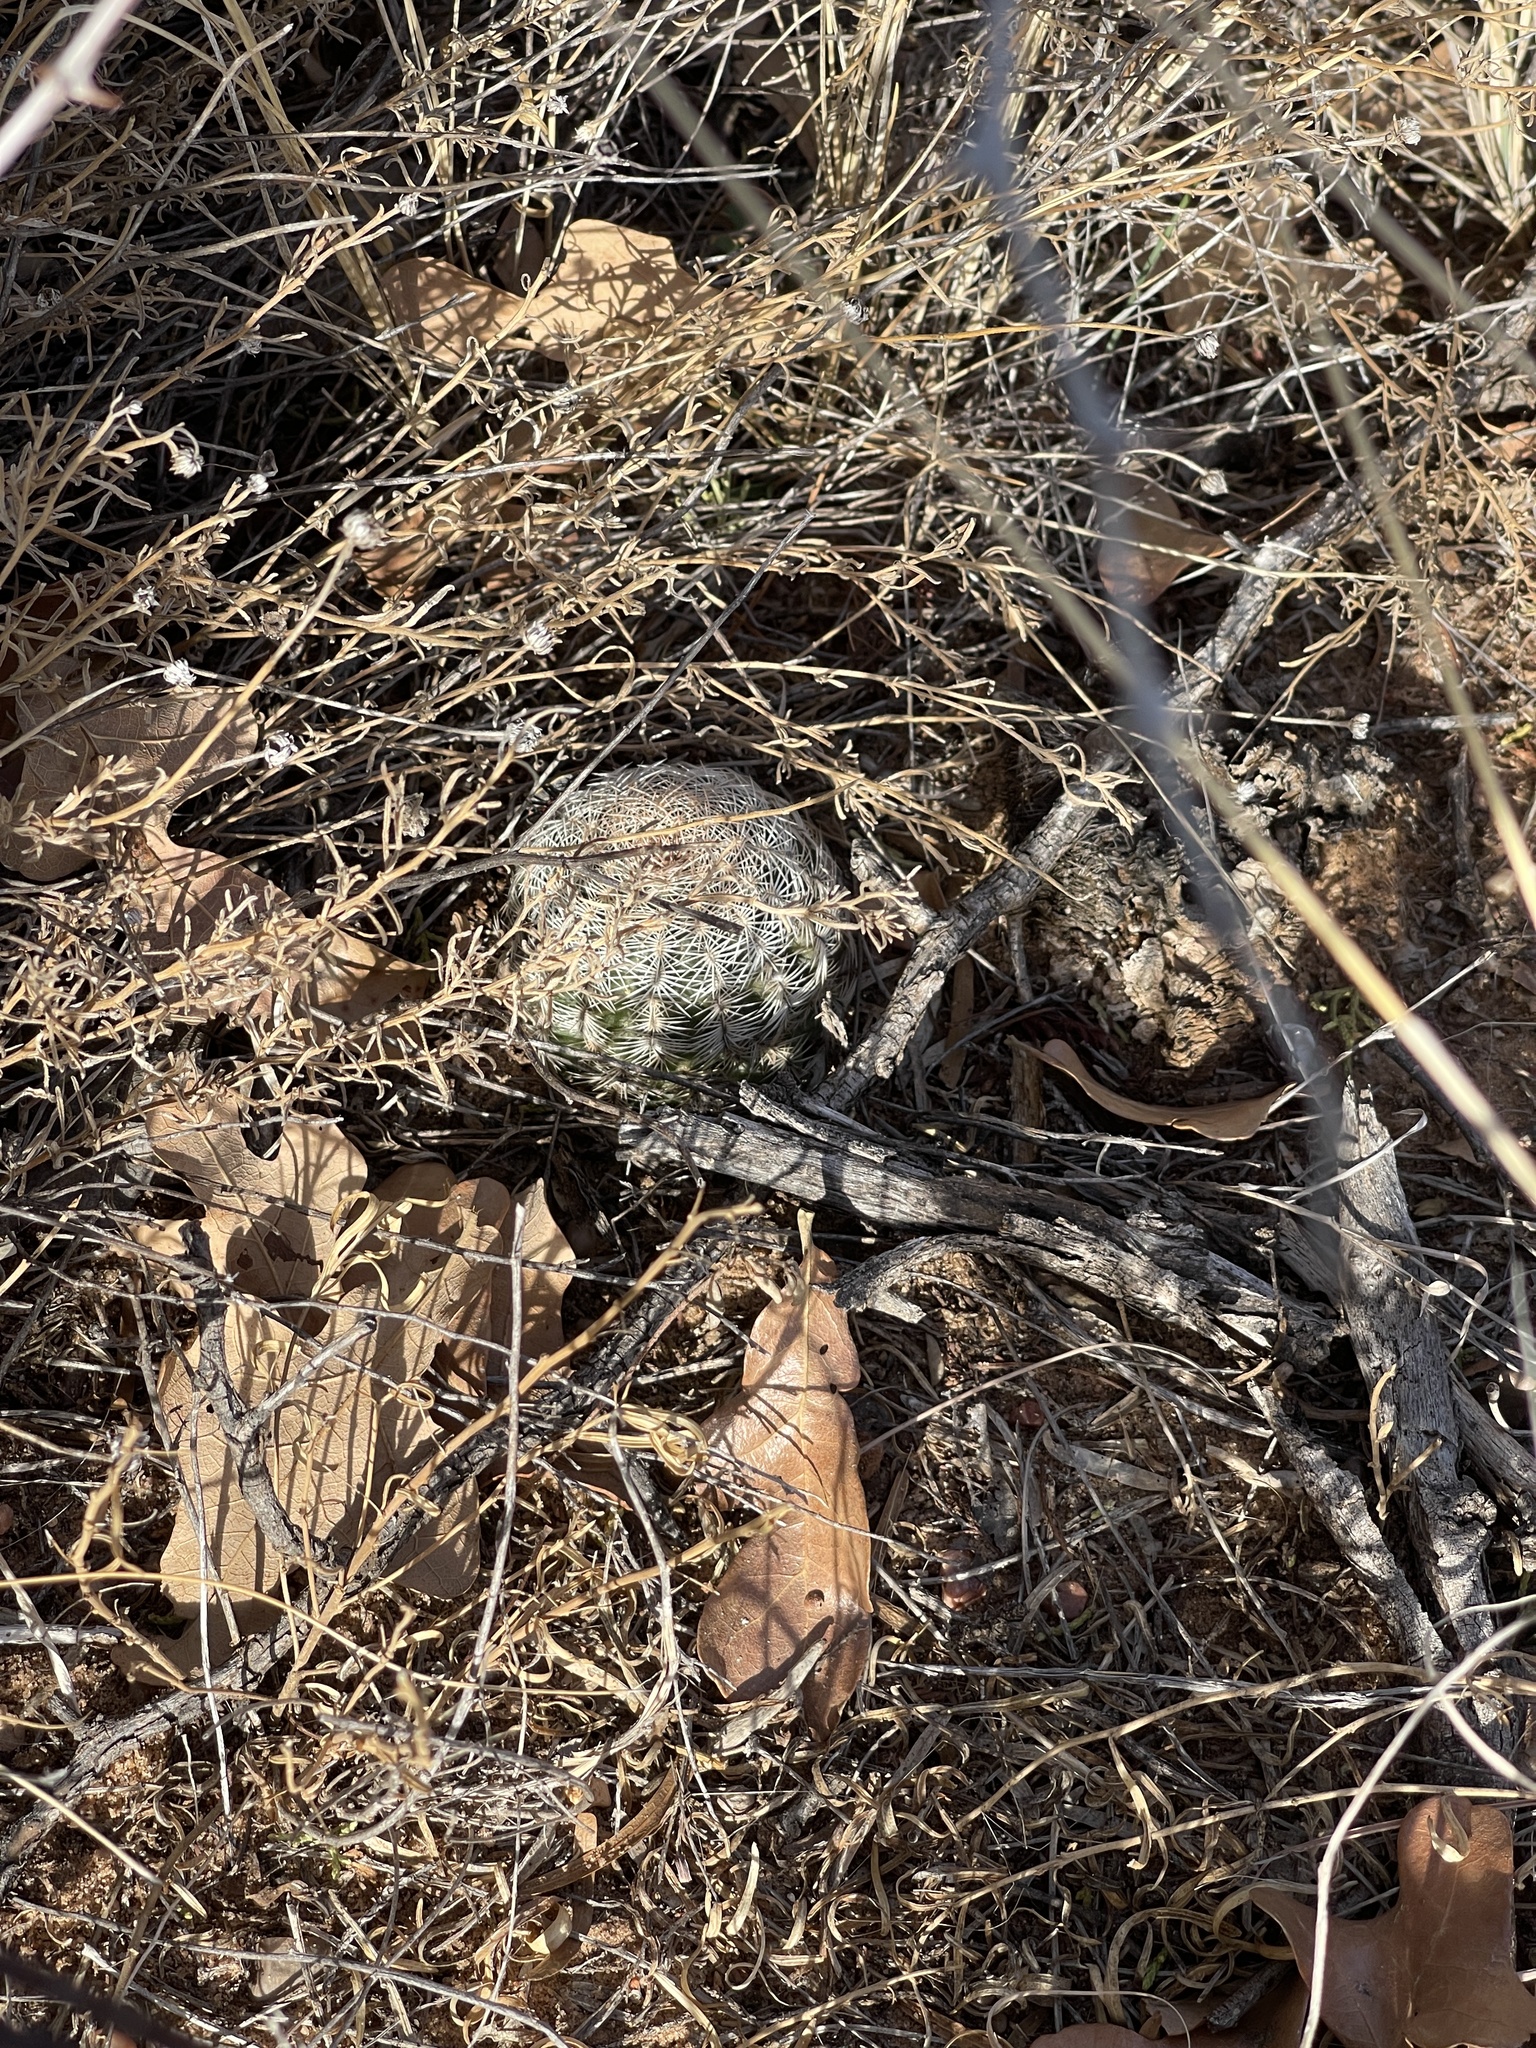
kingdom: Plantae
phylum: Tracheophyta
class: Magnoliopsida
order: Caryophyllales
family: Cactaceae
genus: Echinocereus
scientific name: Echinocereus reichenbachii
